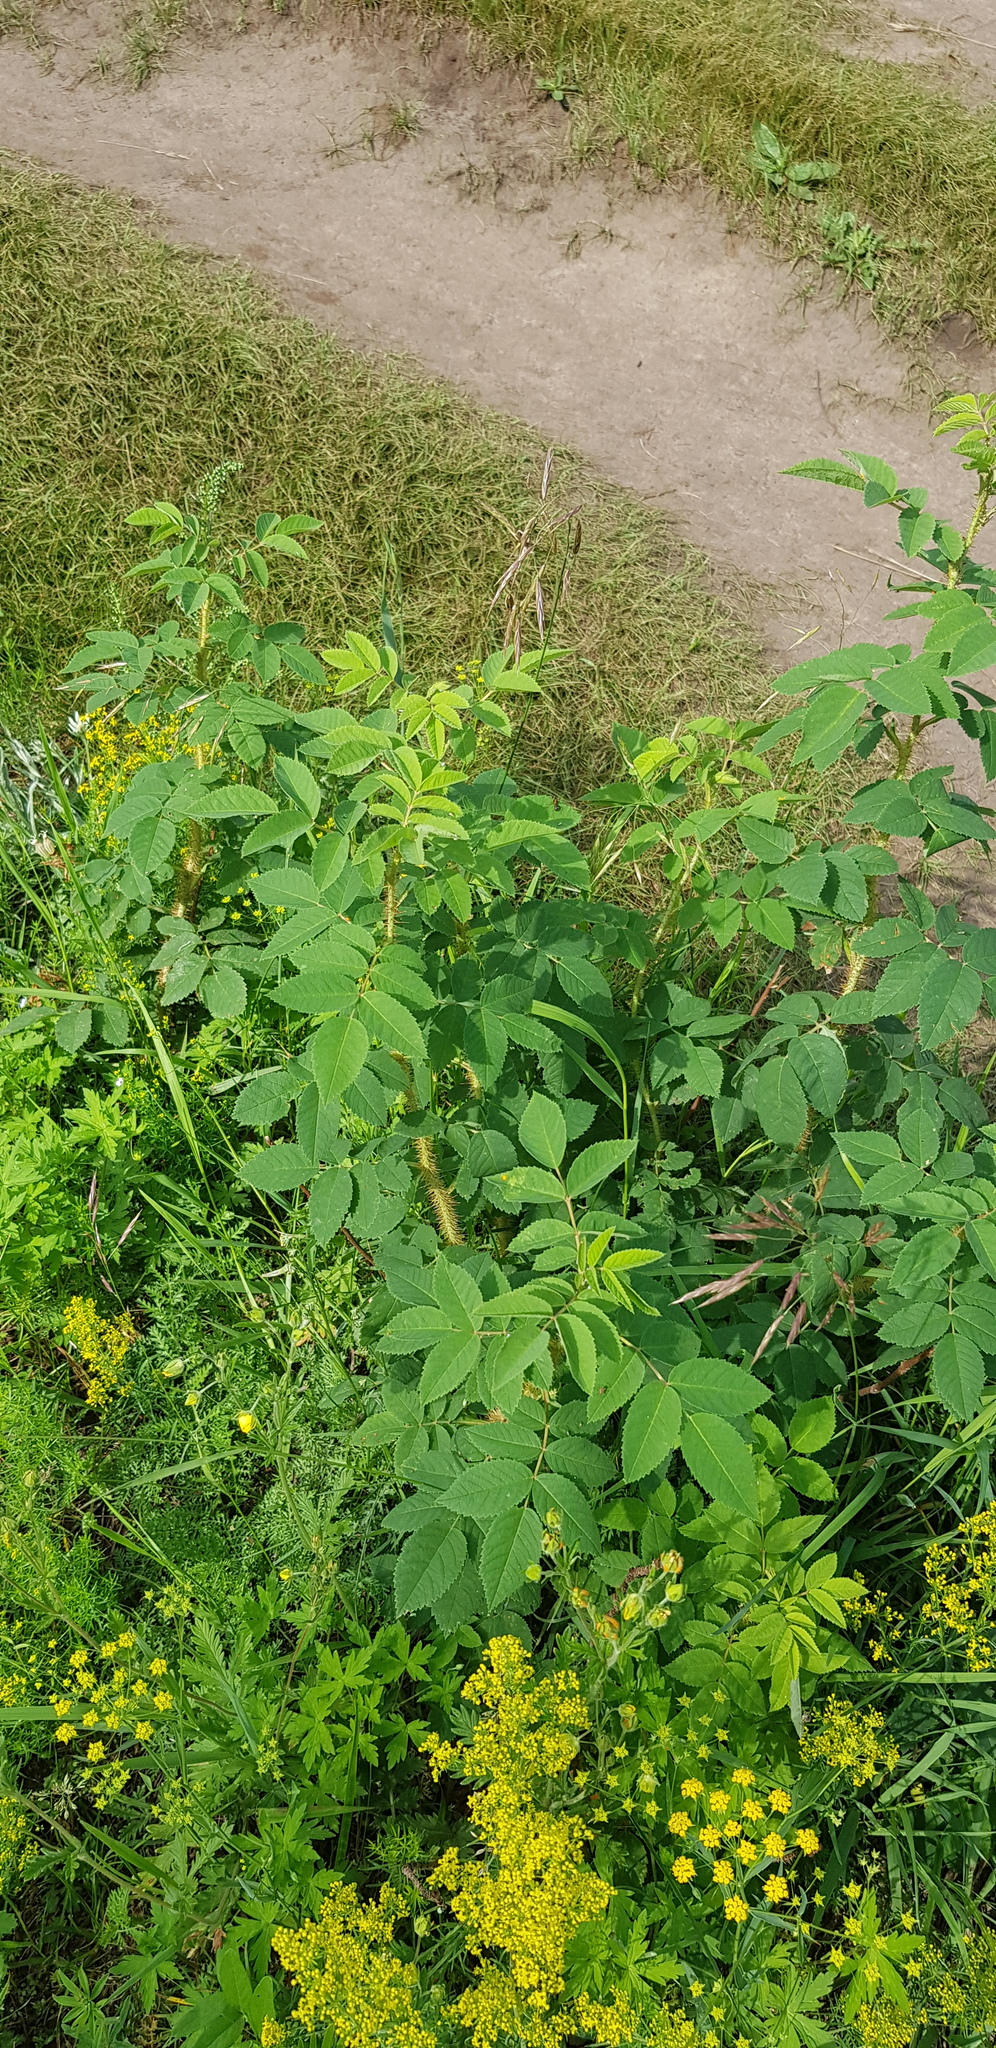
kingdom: Plantae
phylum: Tracheophyta
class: Magnoliopsida
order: Rosales
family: Rosaceae
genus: Rosa
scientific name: Rosa acicularis
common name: Prickly rose
